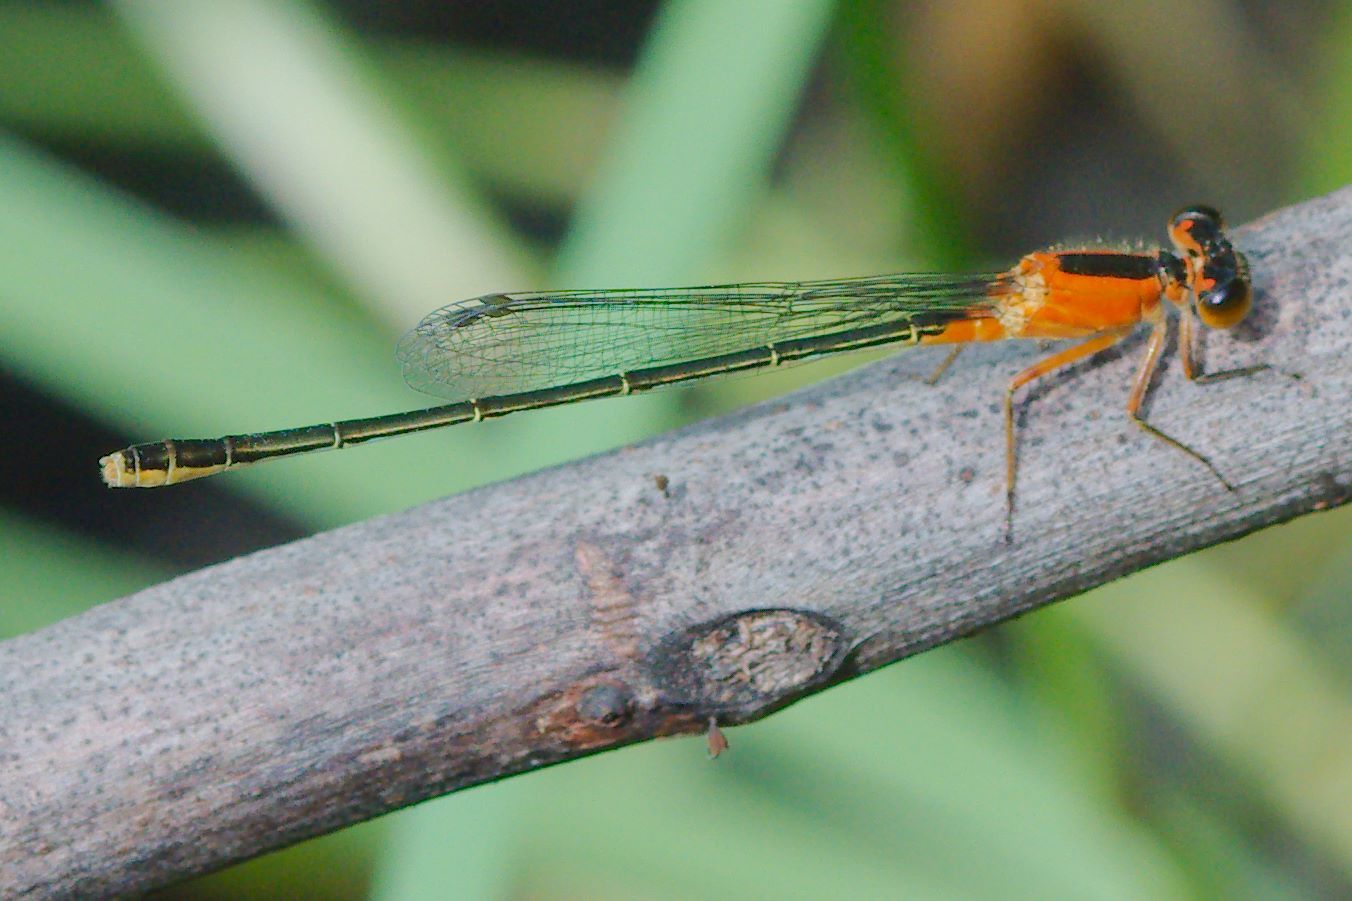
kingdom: Animalia
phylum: Arthropoda
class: Insecta
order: Odonata
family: Coenagrionidae
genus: Ischnura
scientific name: Ischnura ramburii
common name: Rambur's forktail
